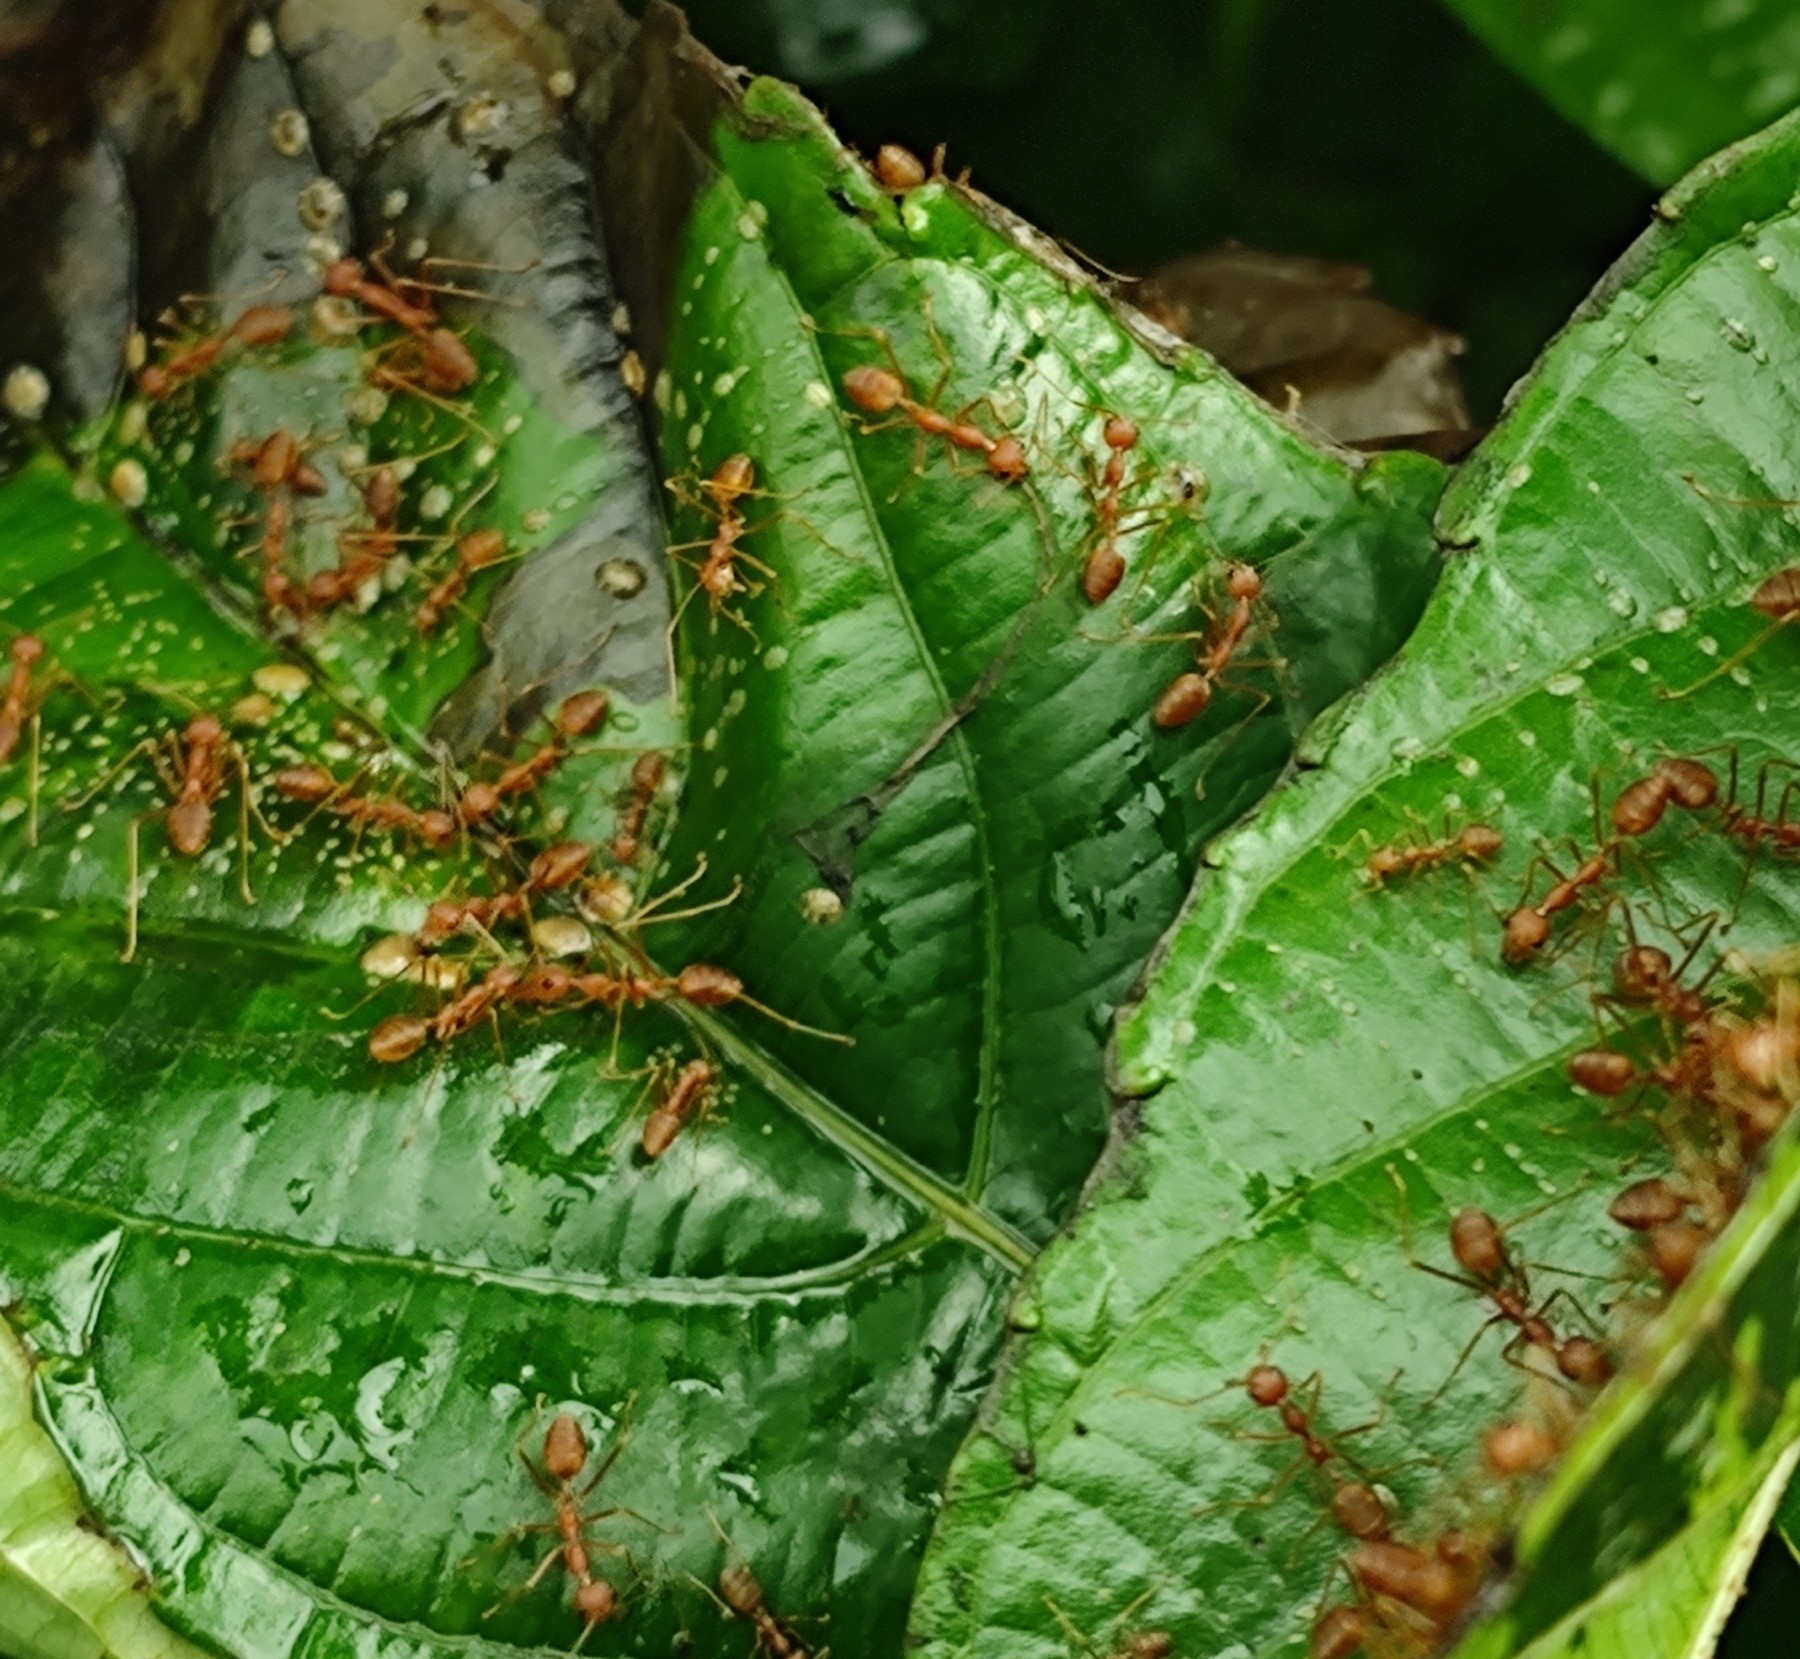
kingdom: Animalia
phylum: Arthropoda
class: Insecta
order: Hymenoptera
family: Formicidae
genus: Oecophylla
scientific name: Oecophylla smaragdina
